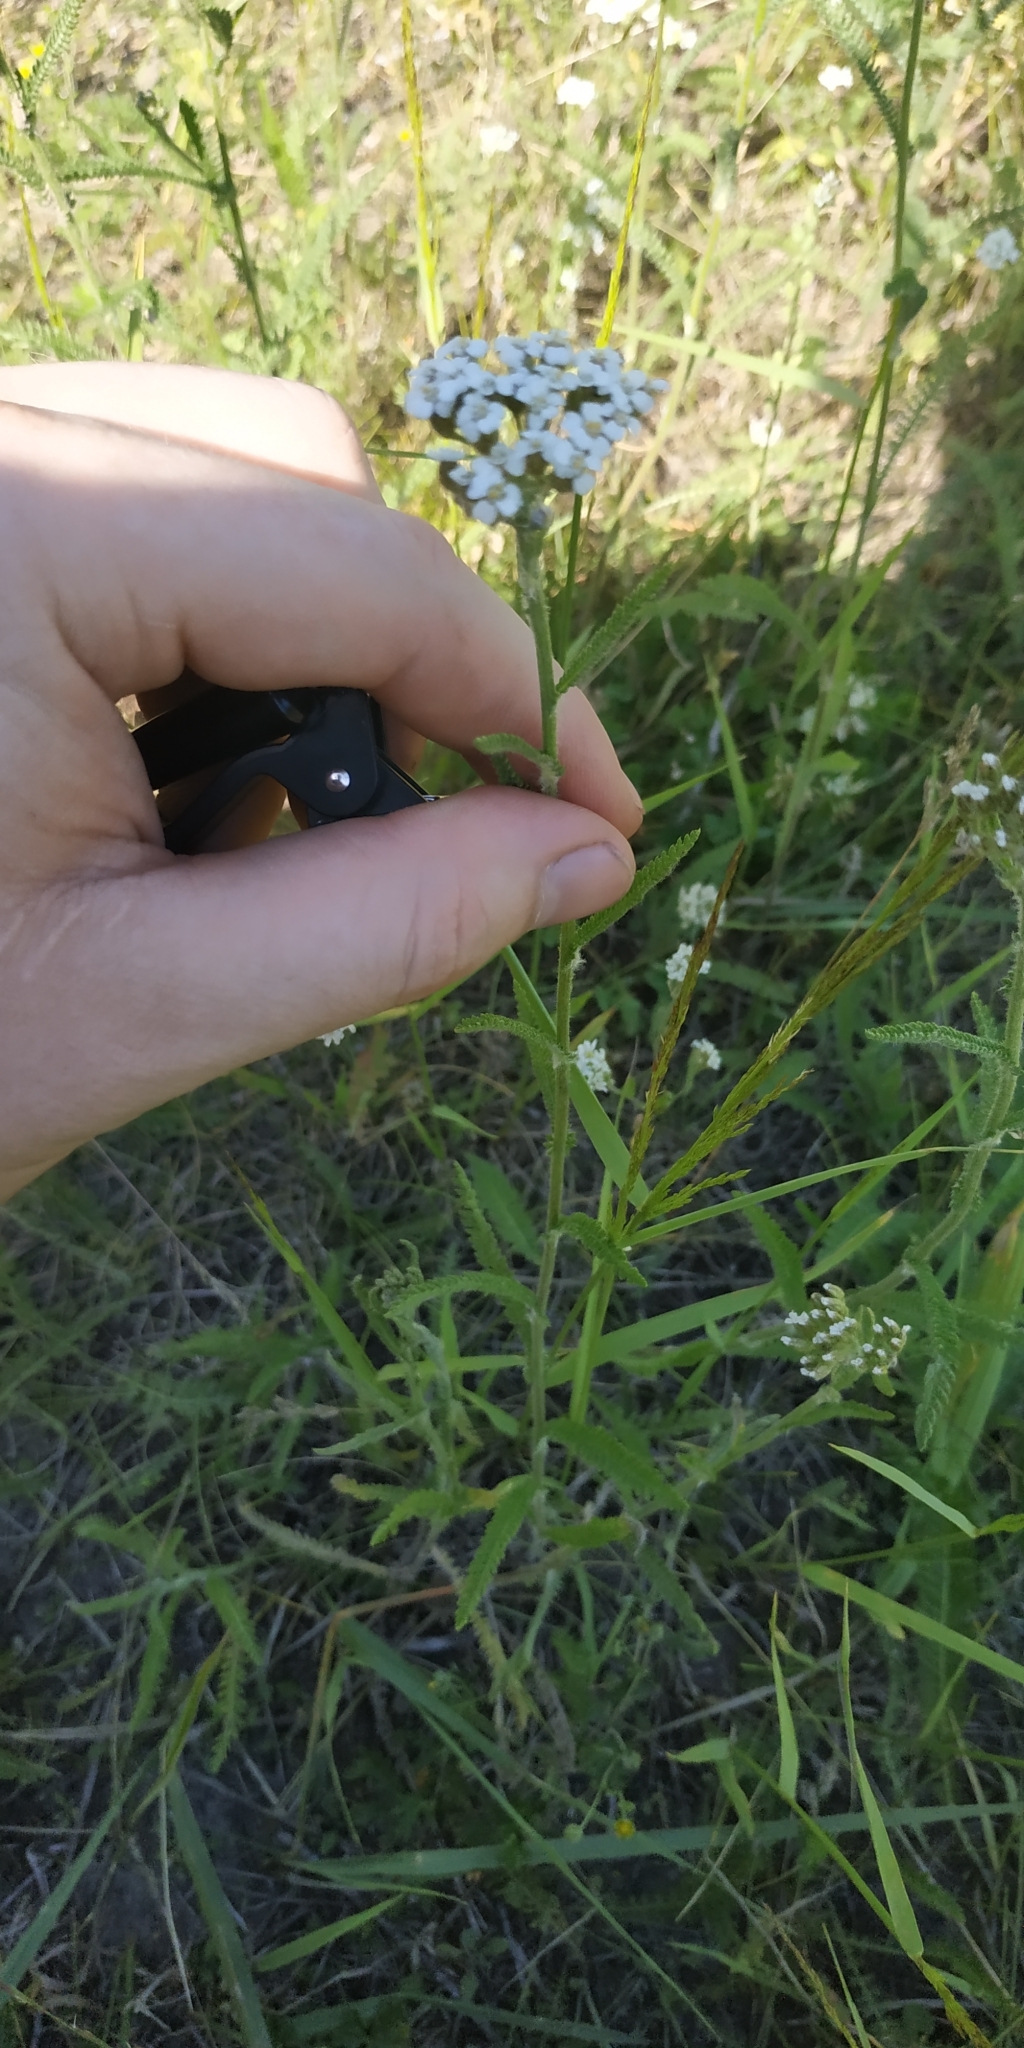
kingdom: Plantae
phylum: Tracheophyta
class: Magnoliopsida
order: Asterales
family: Asteraceae
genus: Achillea
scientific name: Achillea millefolium
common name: Yarrow
